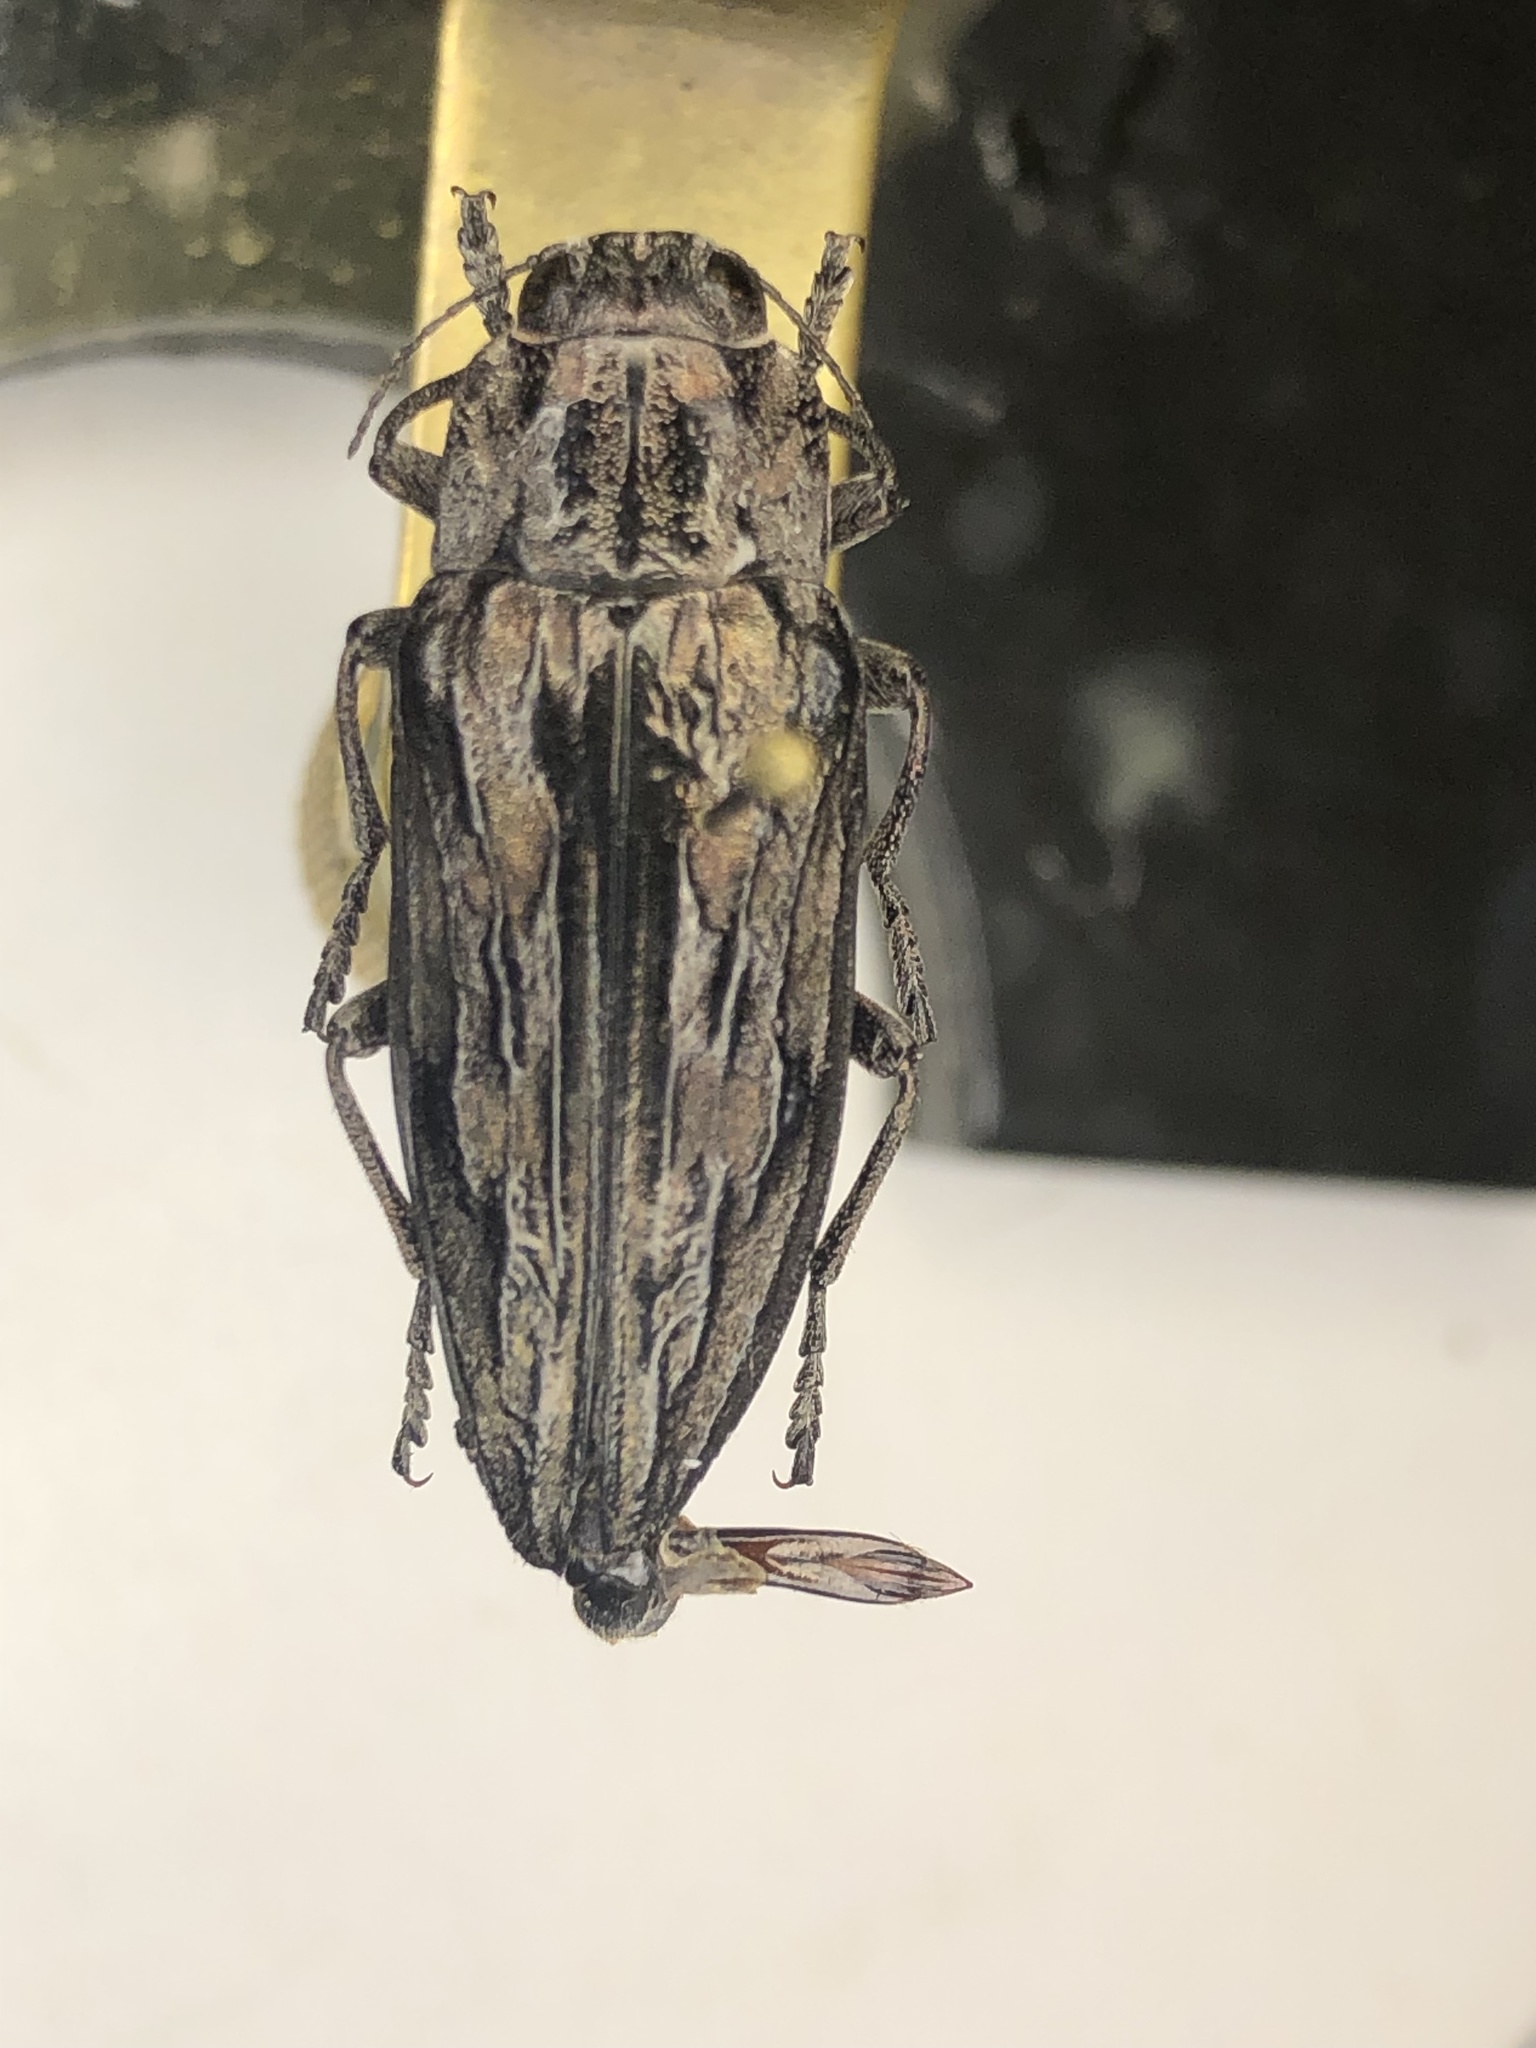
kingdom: Animalia
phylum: Arthropoda
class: Insecta
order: Coleoptera
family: Buprestidae
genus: Chalcophora
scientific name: Chalcophora virginiensis
